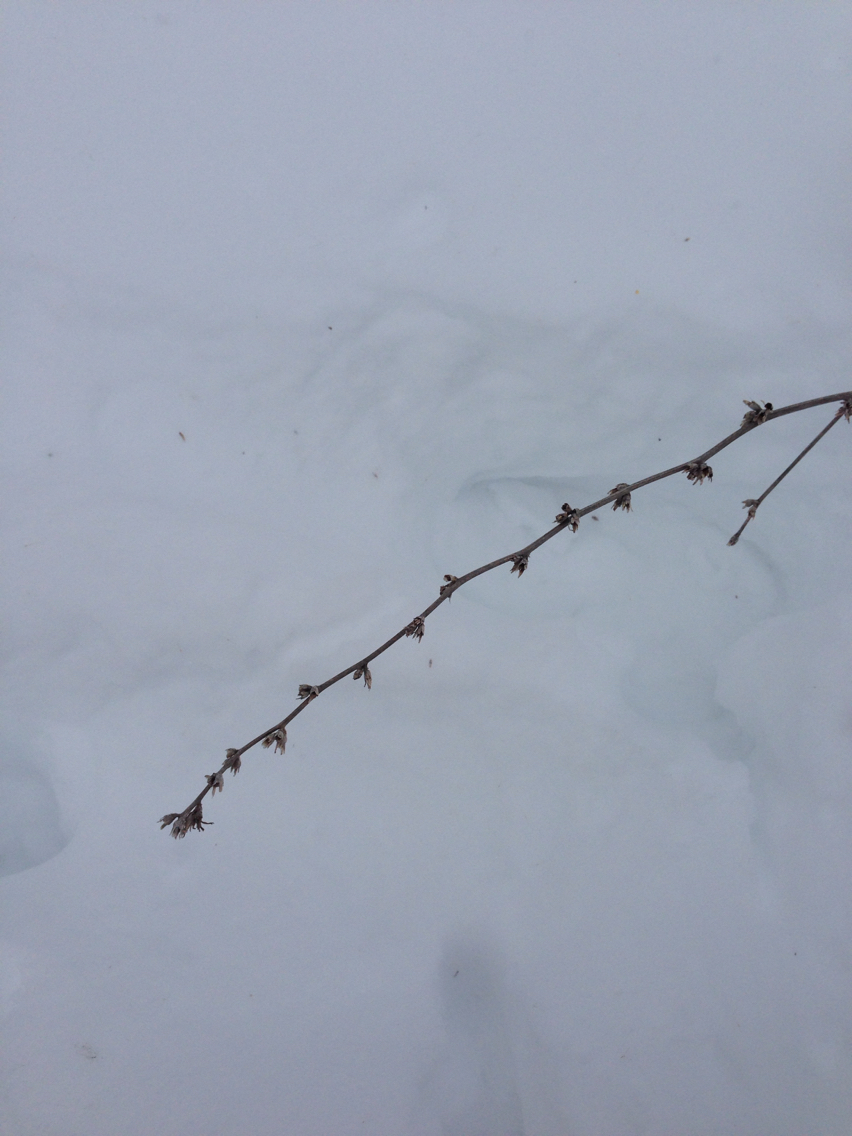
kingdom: Plantae
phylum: Tracheophyta
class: Magnoliopsida
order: Asterales
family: Asteraceae
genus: Cichorium
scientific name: Cichorium intybus
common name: Chicory
